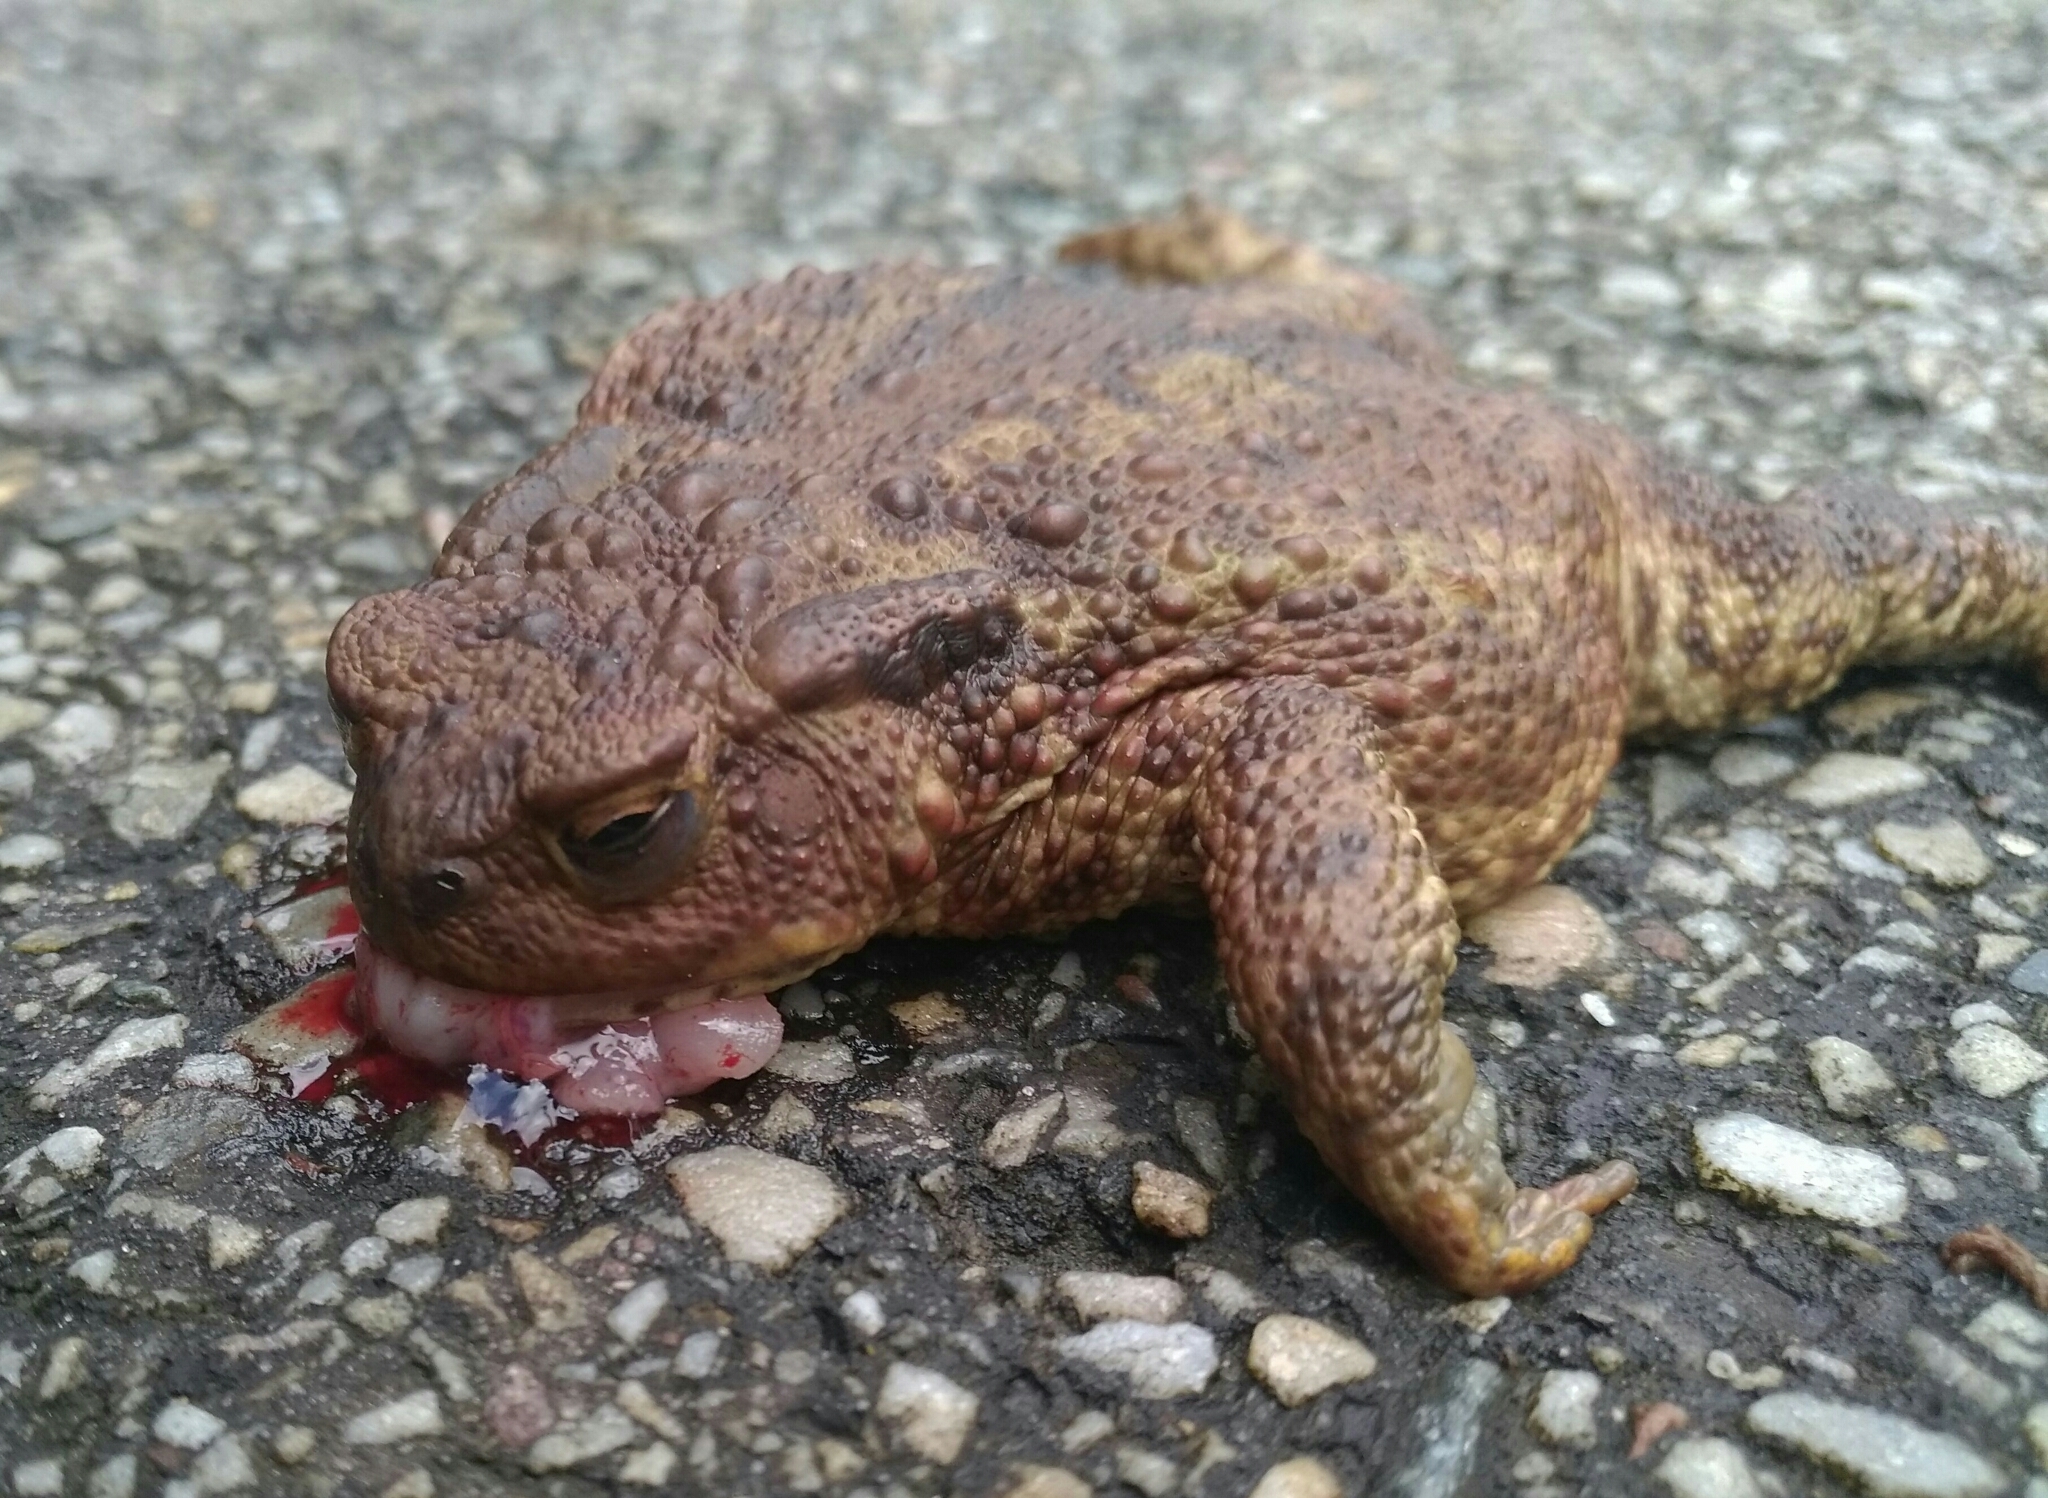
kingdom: Animalia
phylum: Chordata
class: Amphibia
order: Anura
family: Bufonidae
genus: Bufo
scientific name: Bufo bufo
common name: Common toad
